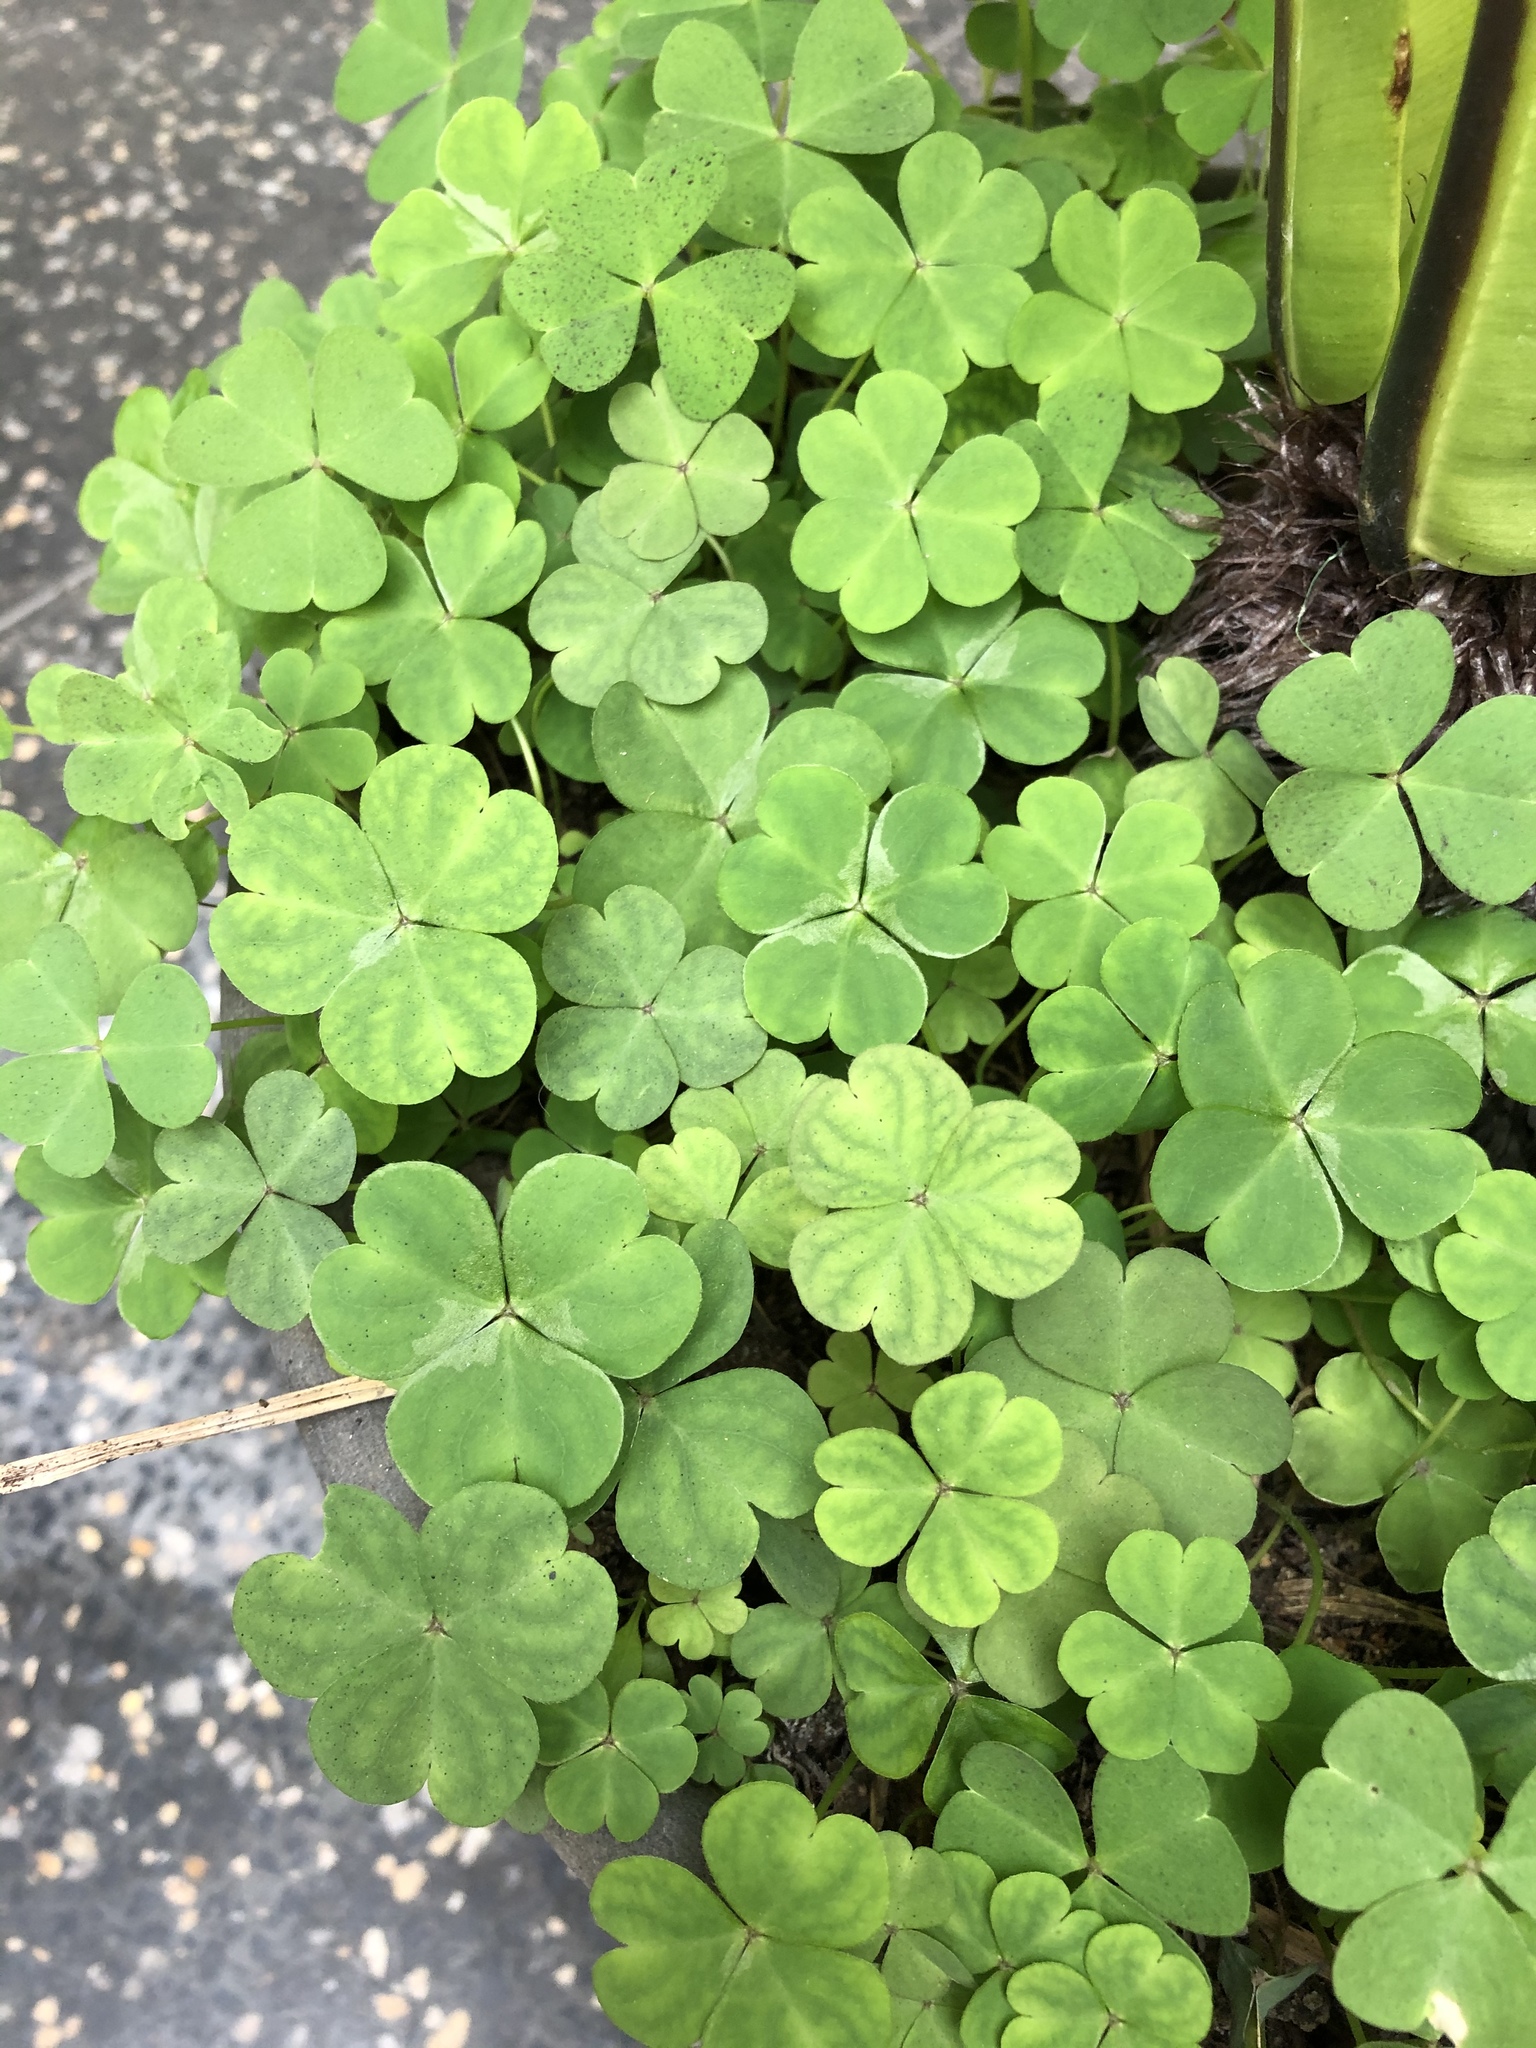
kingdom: Plantae
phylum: Tracheophyta
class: Magnoliopsida
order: Oxalidales
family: Oxalidaceae
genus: Oxalis
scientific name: Oxalis debilis
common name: Large-flowered pink-sorrel
